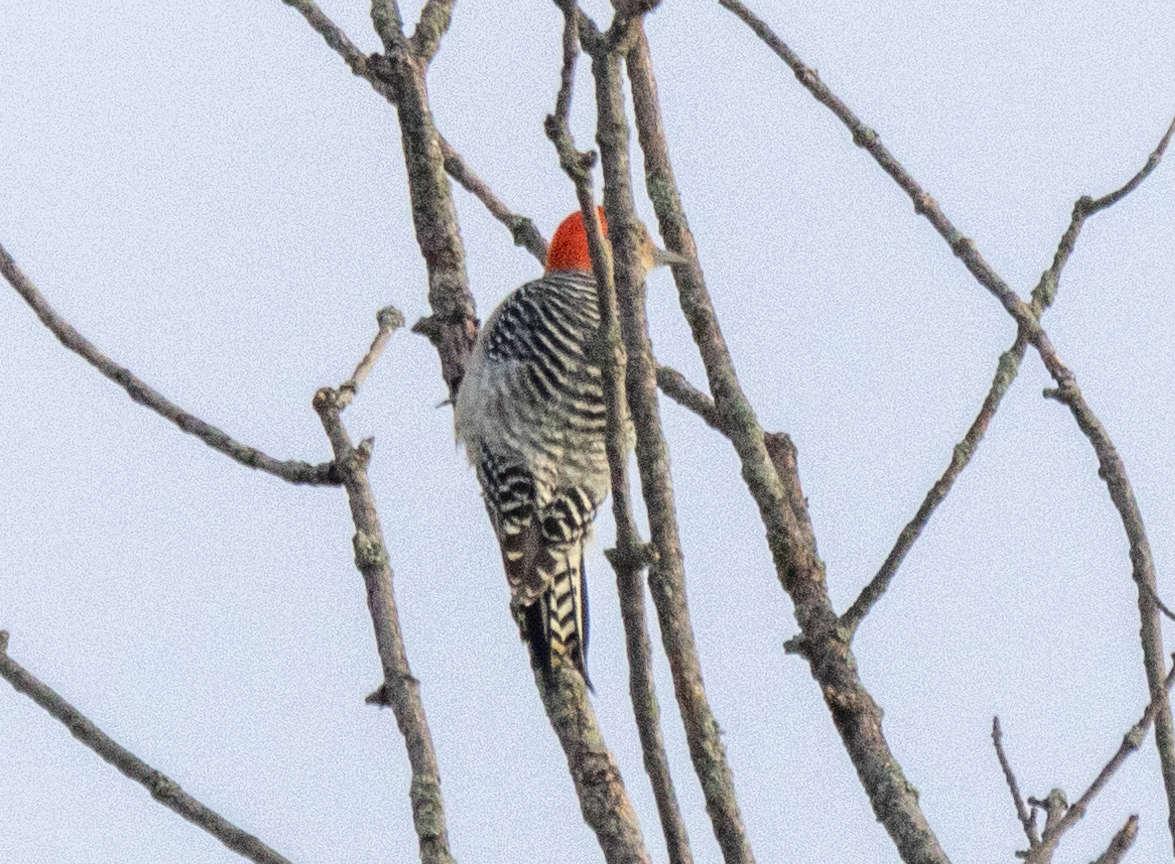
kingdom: Animalia
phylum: Chordata
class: Aves
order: Piciformes
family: Picidae
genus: Melanerpes
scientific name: Melanerpes carolinus
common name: Red-bellied woodpecker
